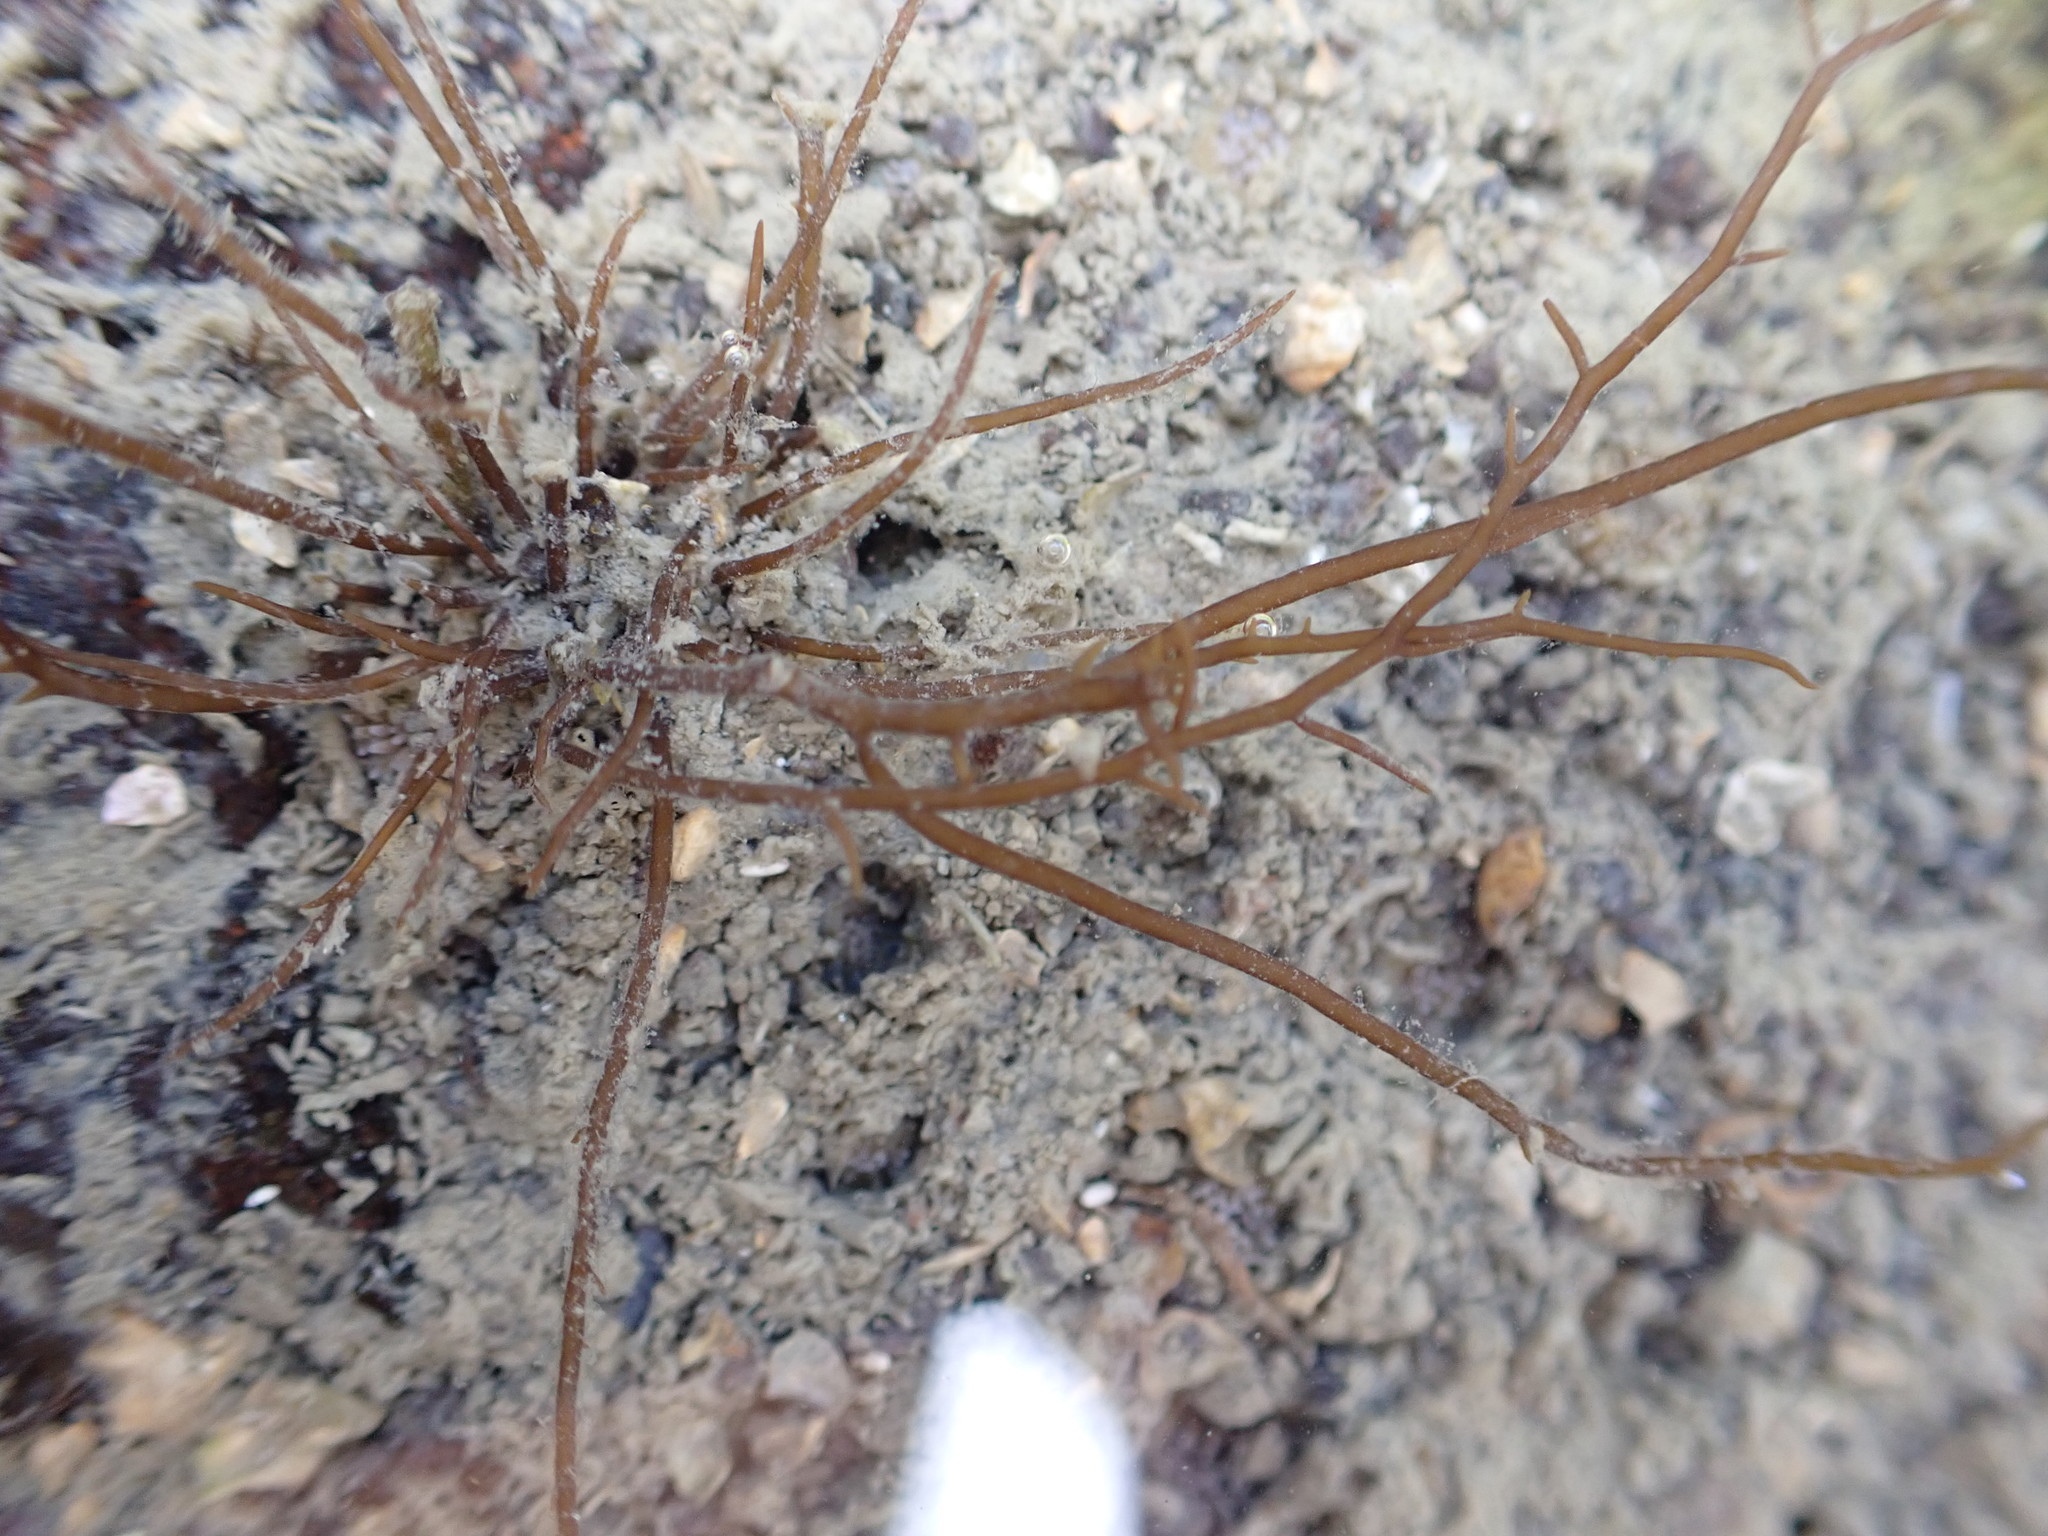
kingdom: Plantae
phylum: Rhodophyta
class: Florideophyceae
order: Gracilariales
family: Gracilariaceae
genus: Gracilaria
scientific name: Gracilaria chilensis
